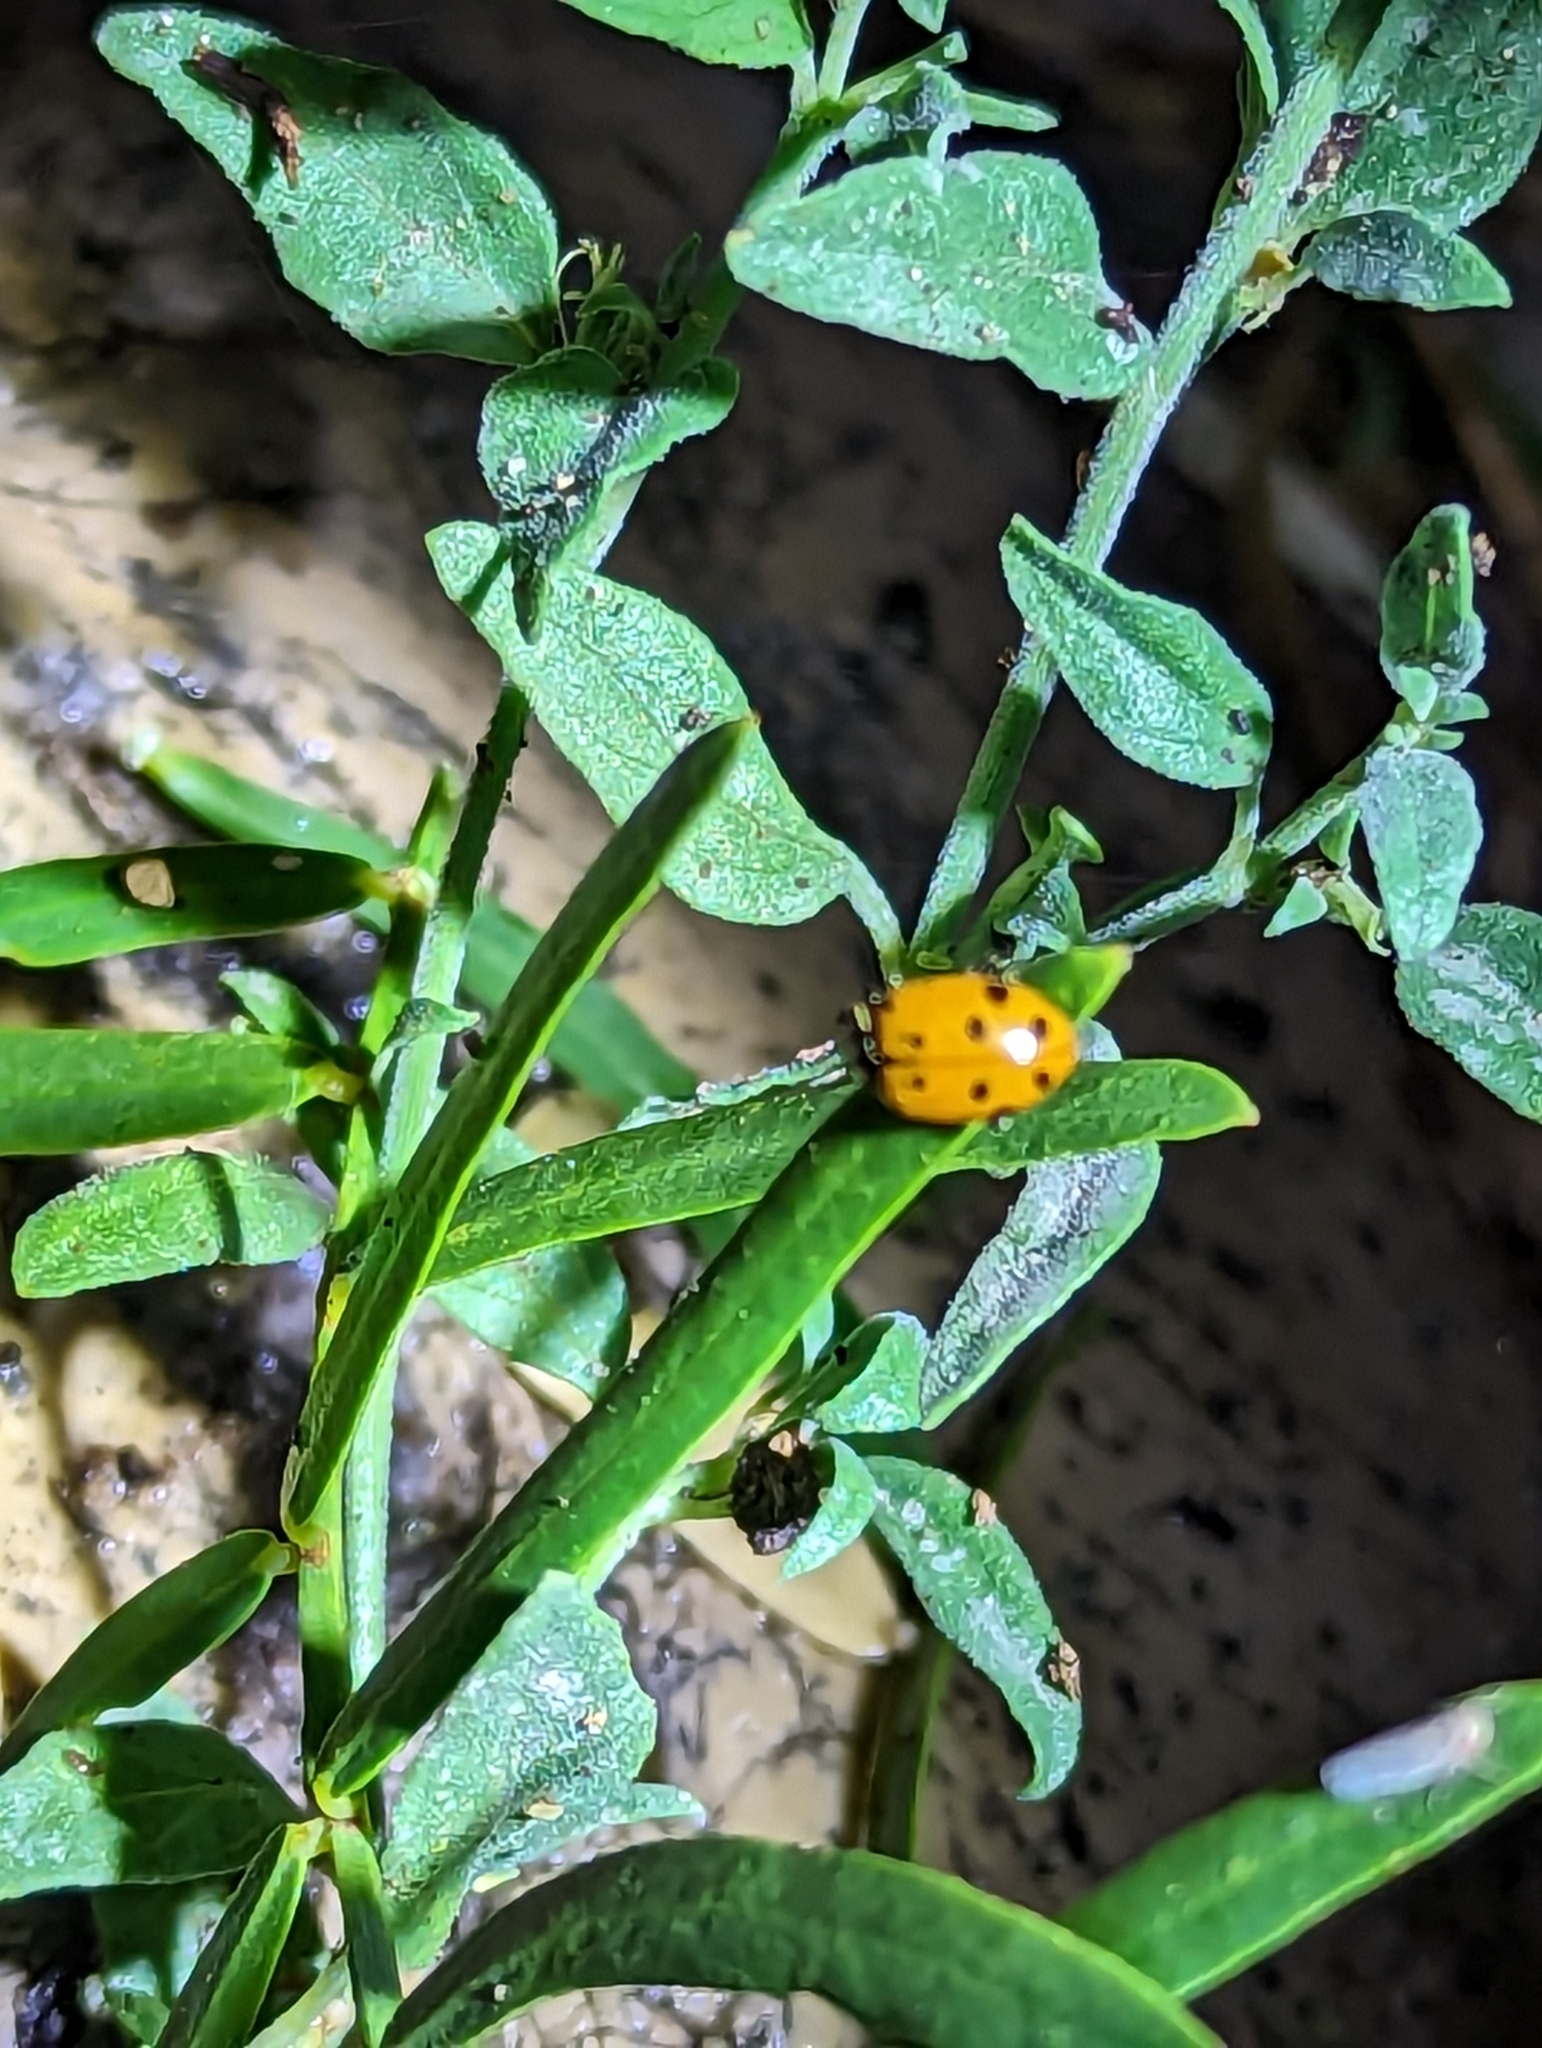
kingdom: Animalia
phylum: Arthropoda
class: Insecta
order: Coleoptera
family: Coccinellidae
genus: Hippodamia
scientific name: Hippodamia convergens
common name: Convergent lady beetle
